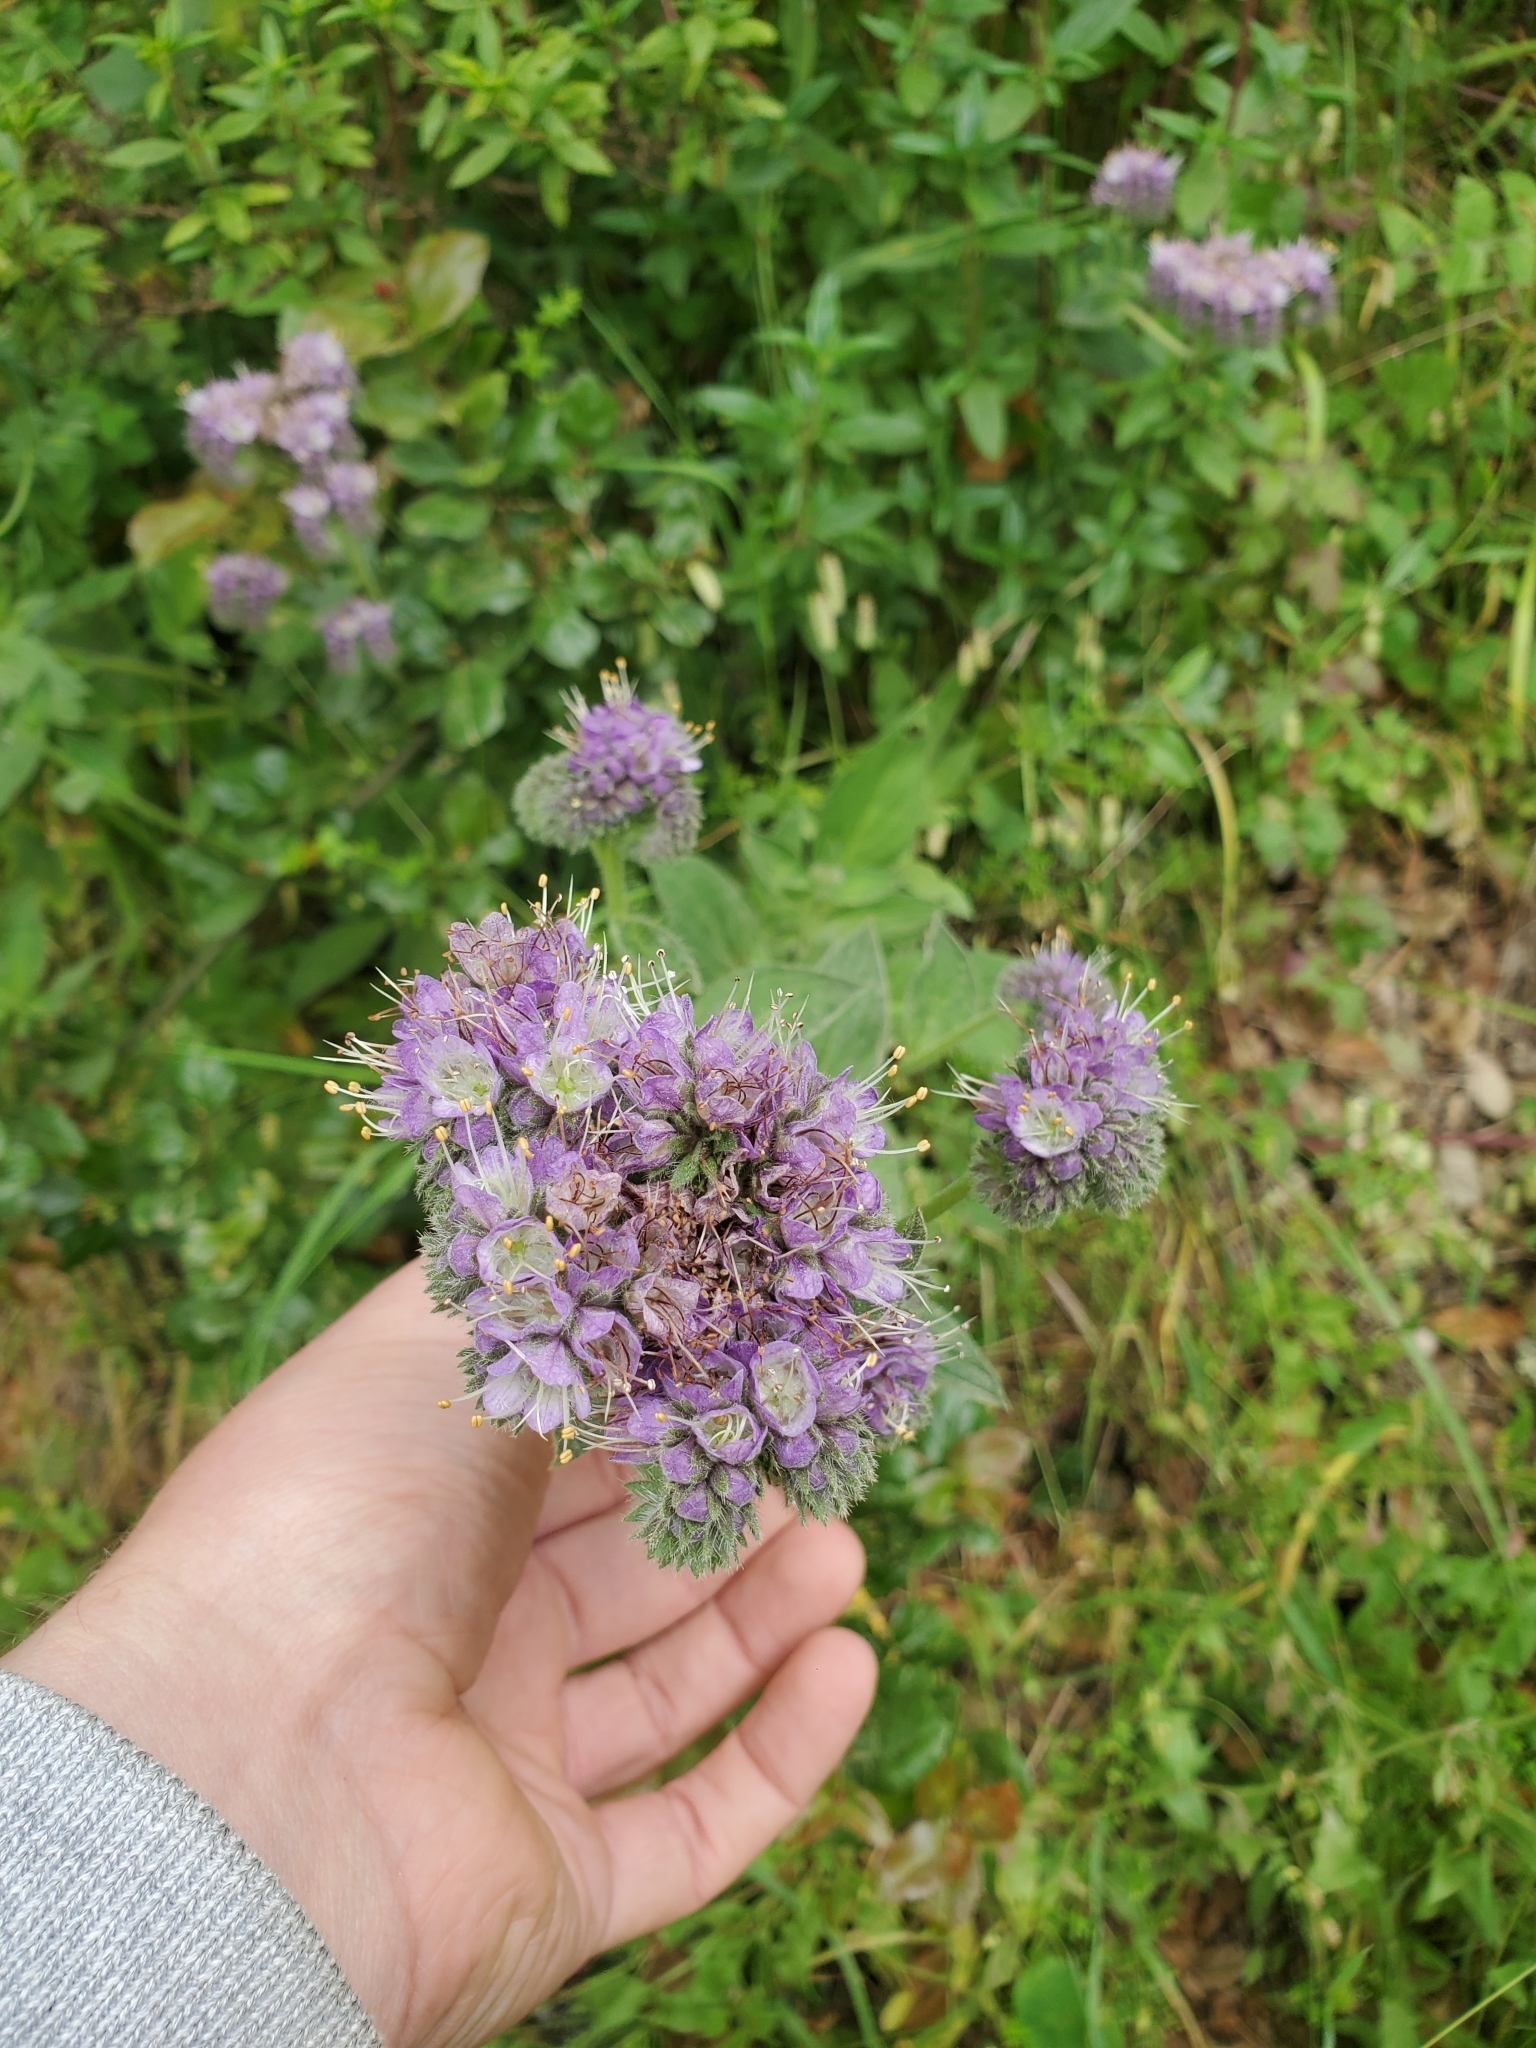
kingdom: Plantae
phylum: Tracheophyta
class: Magnoliopsida
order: Boraginales
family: Hydrophyllaceae
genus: Phacelia
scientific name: Phacelia californica
